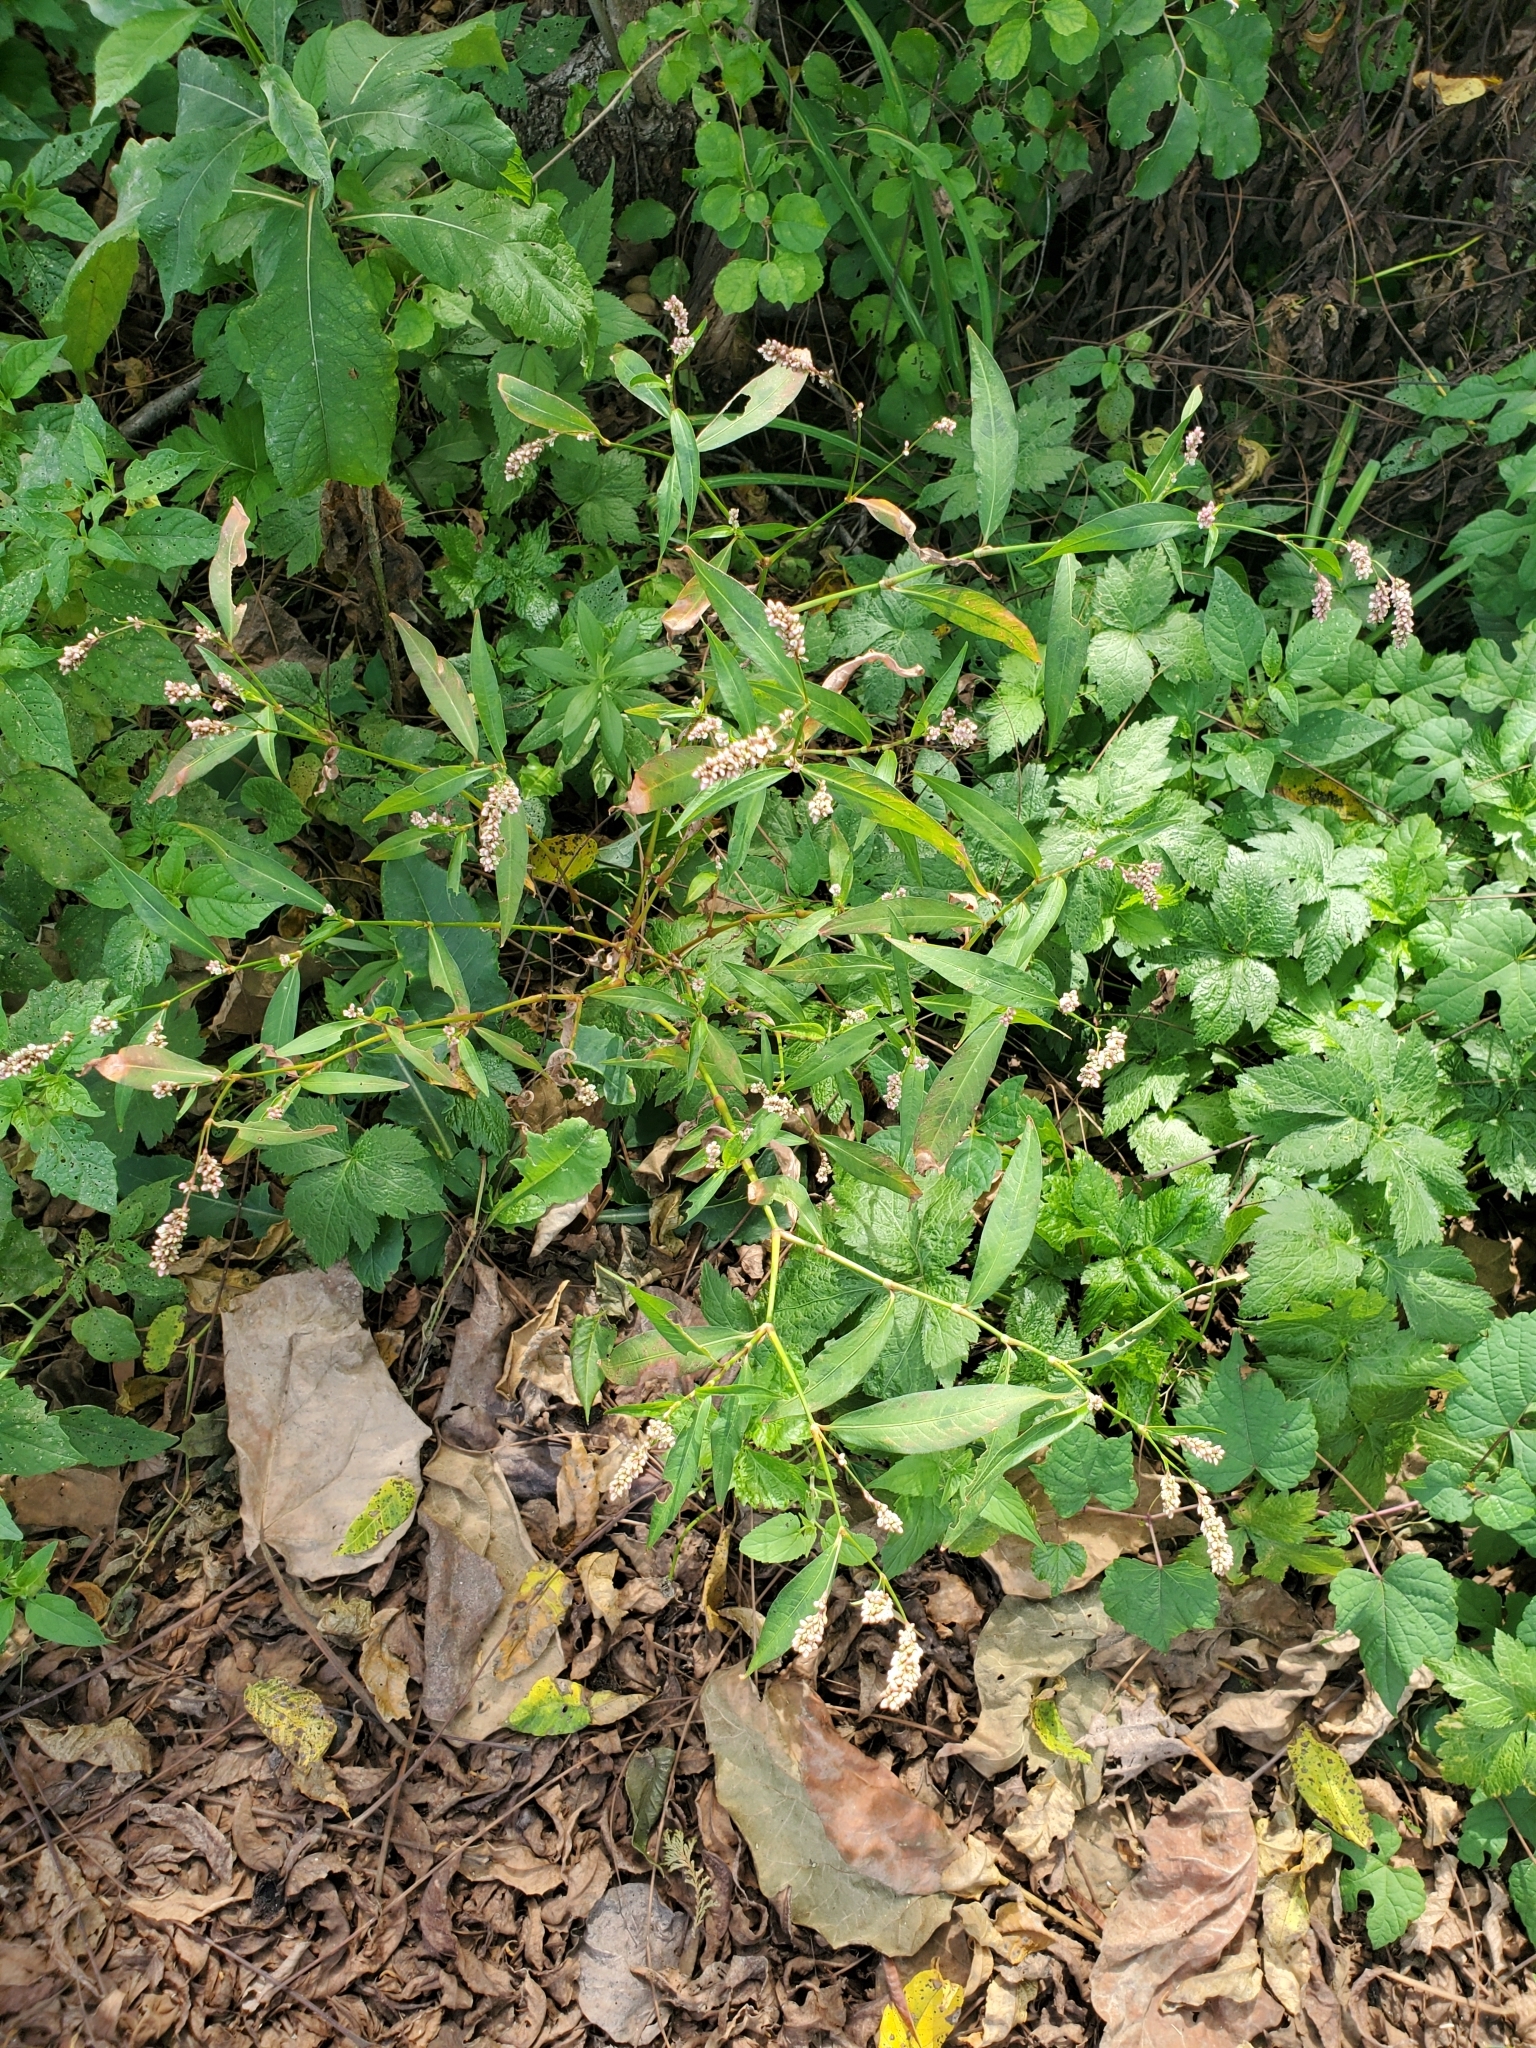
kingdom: Plantae
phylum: Tracheophyta
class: Magnoliopsida
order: Caryophyllales
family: Polygonaceae
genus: Persicaria
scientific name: Persicaria maculosa
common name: Redshank
